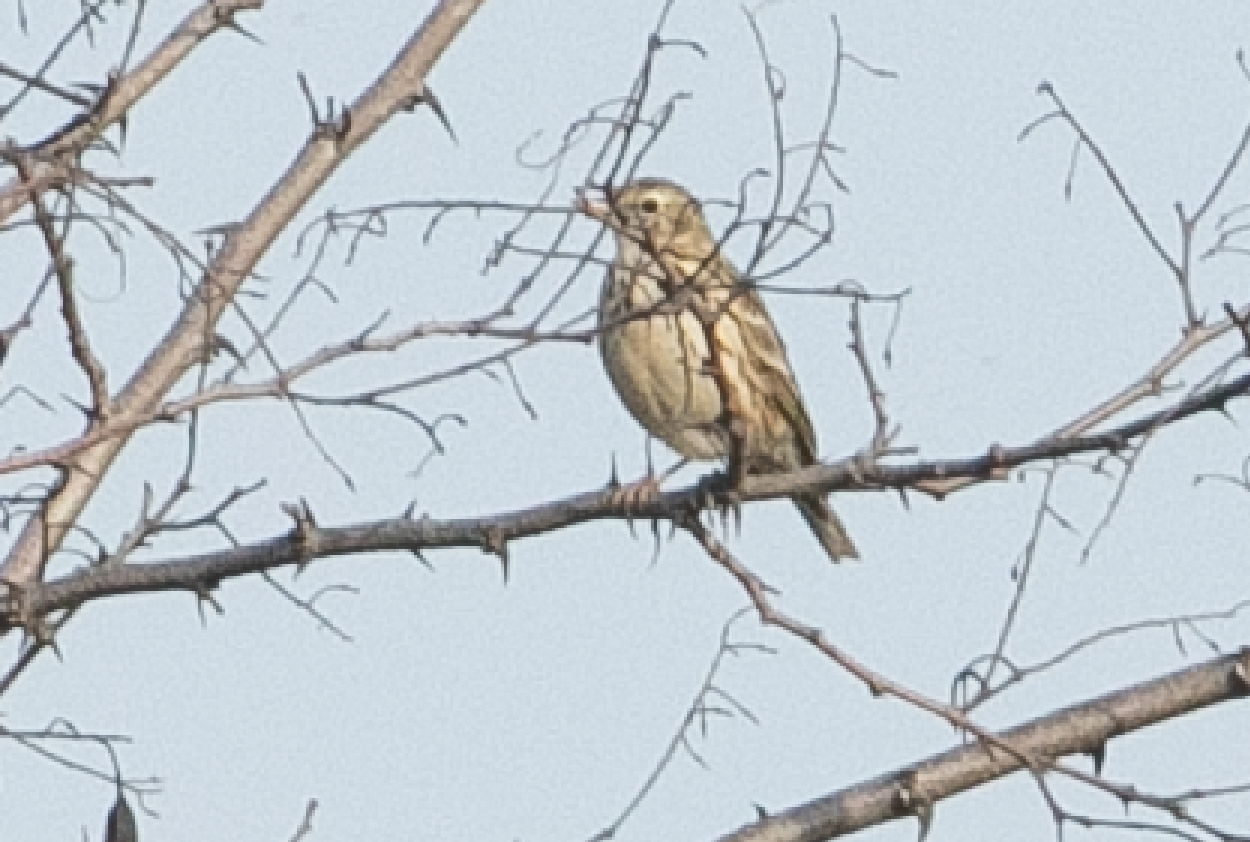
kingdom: Animalia
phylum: Chordata
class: Aves
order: Passeriformes
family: Motacillidae
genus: Anthus
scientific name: Anthus pratensis
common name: Meadow pipit
